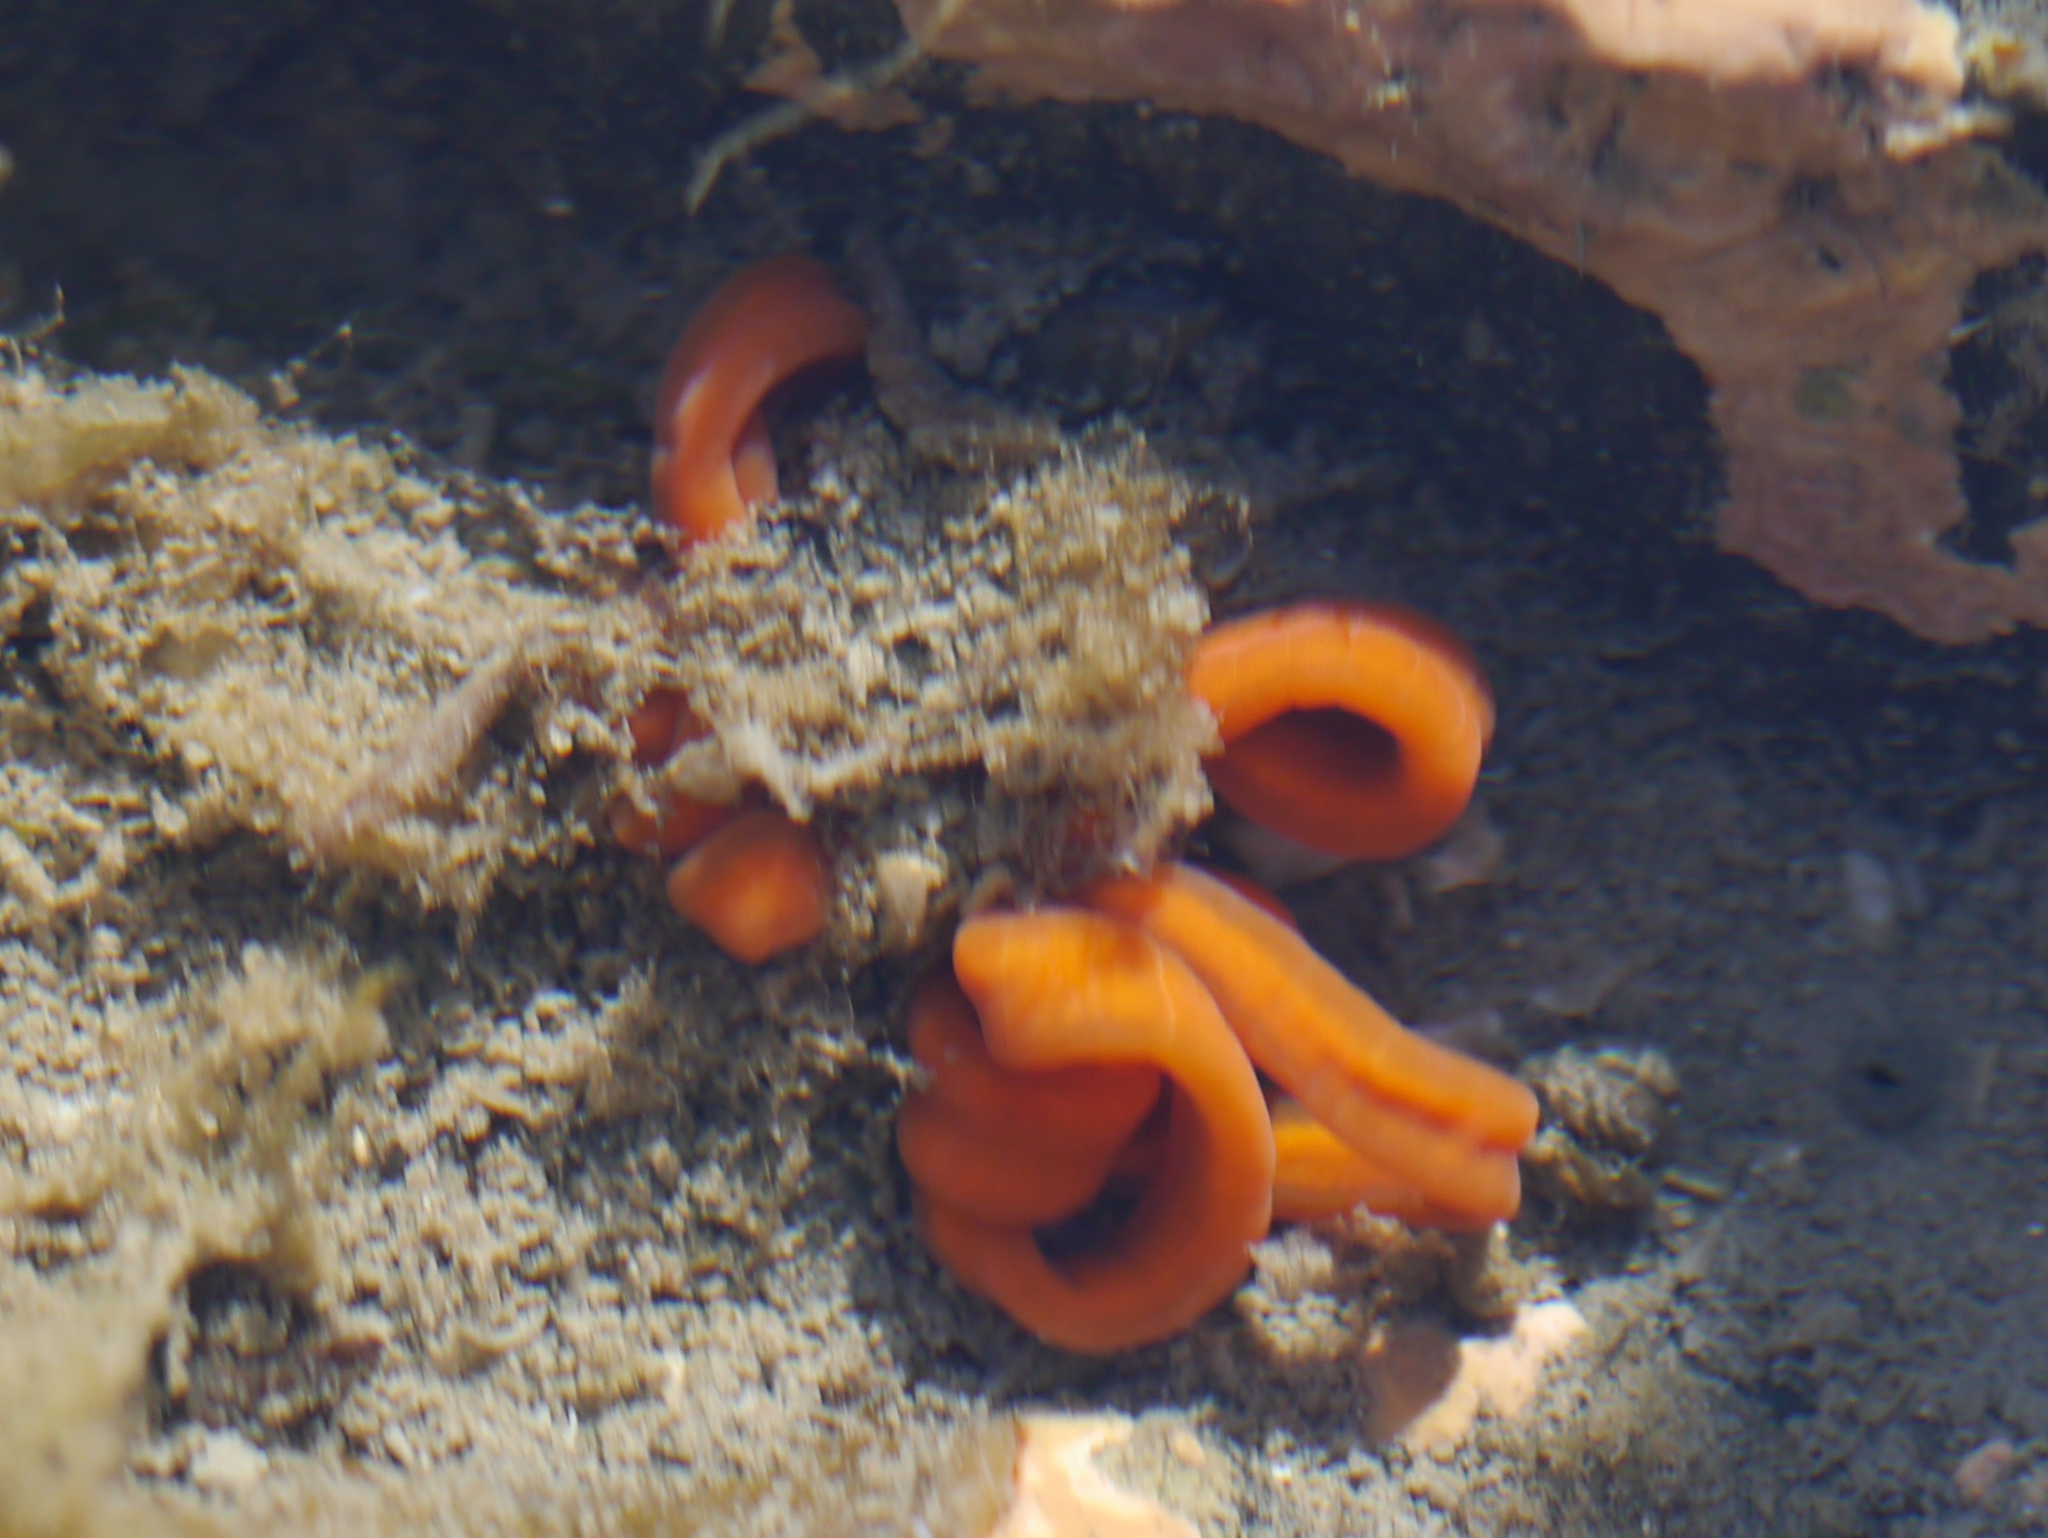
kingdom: Animalia
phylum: Nemertea
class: Palaeonemertea
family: Tubulanidae
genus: Tubulanus
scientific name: Tubulanus polymorphus
